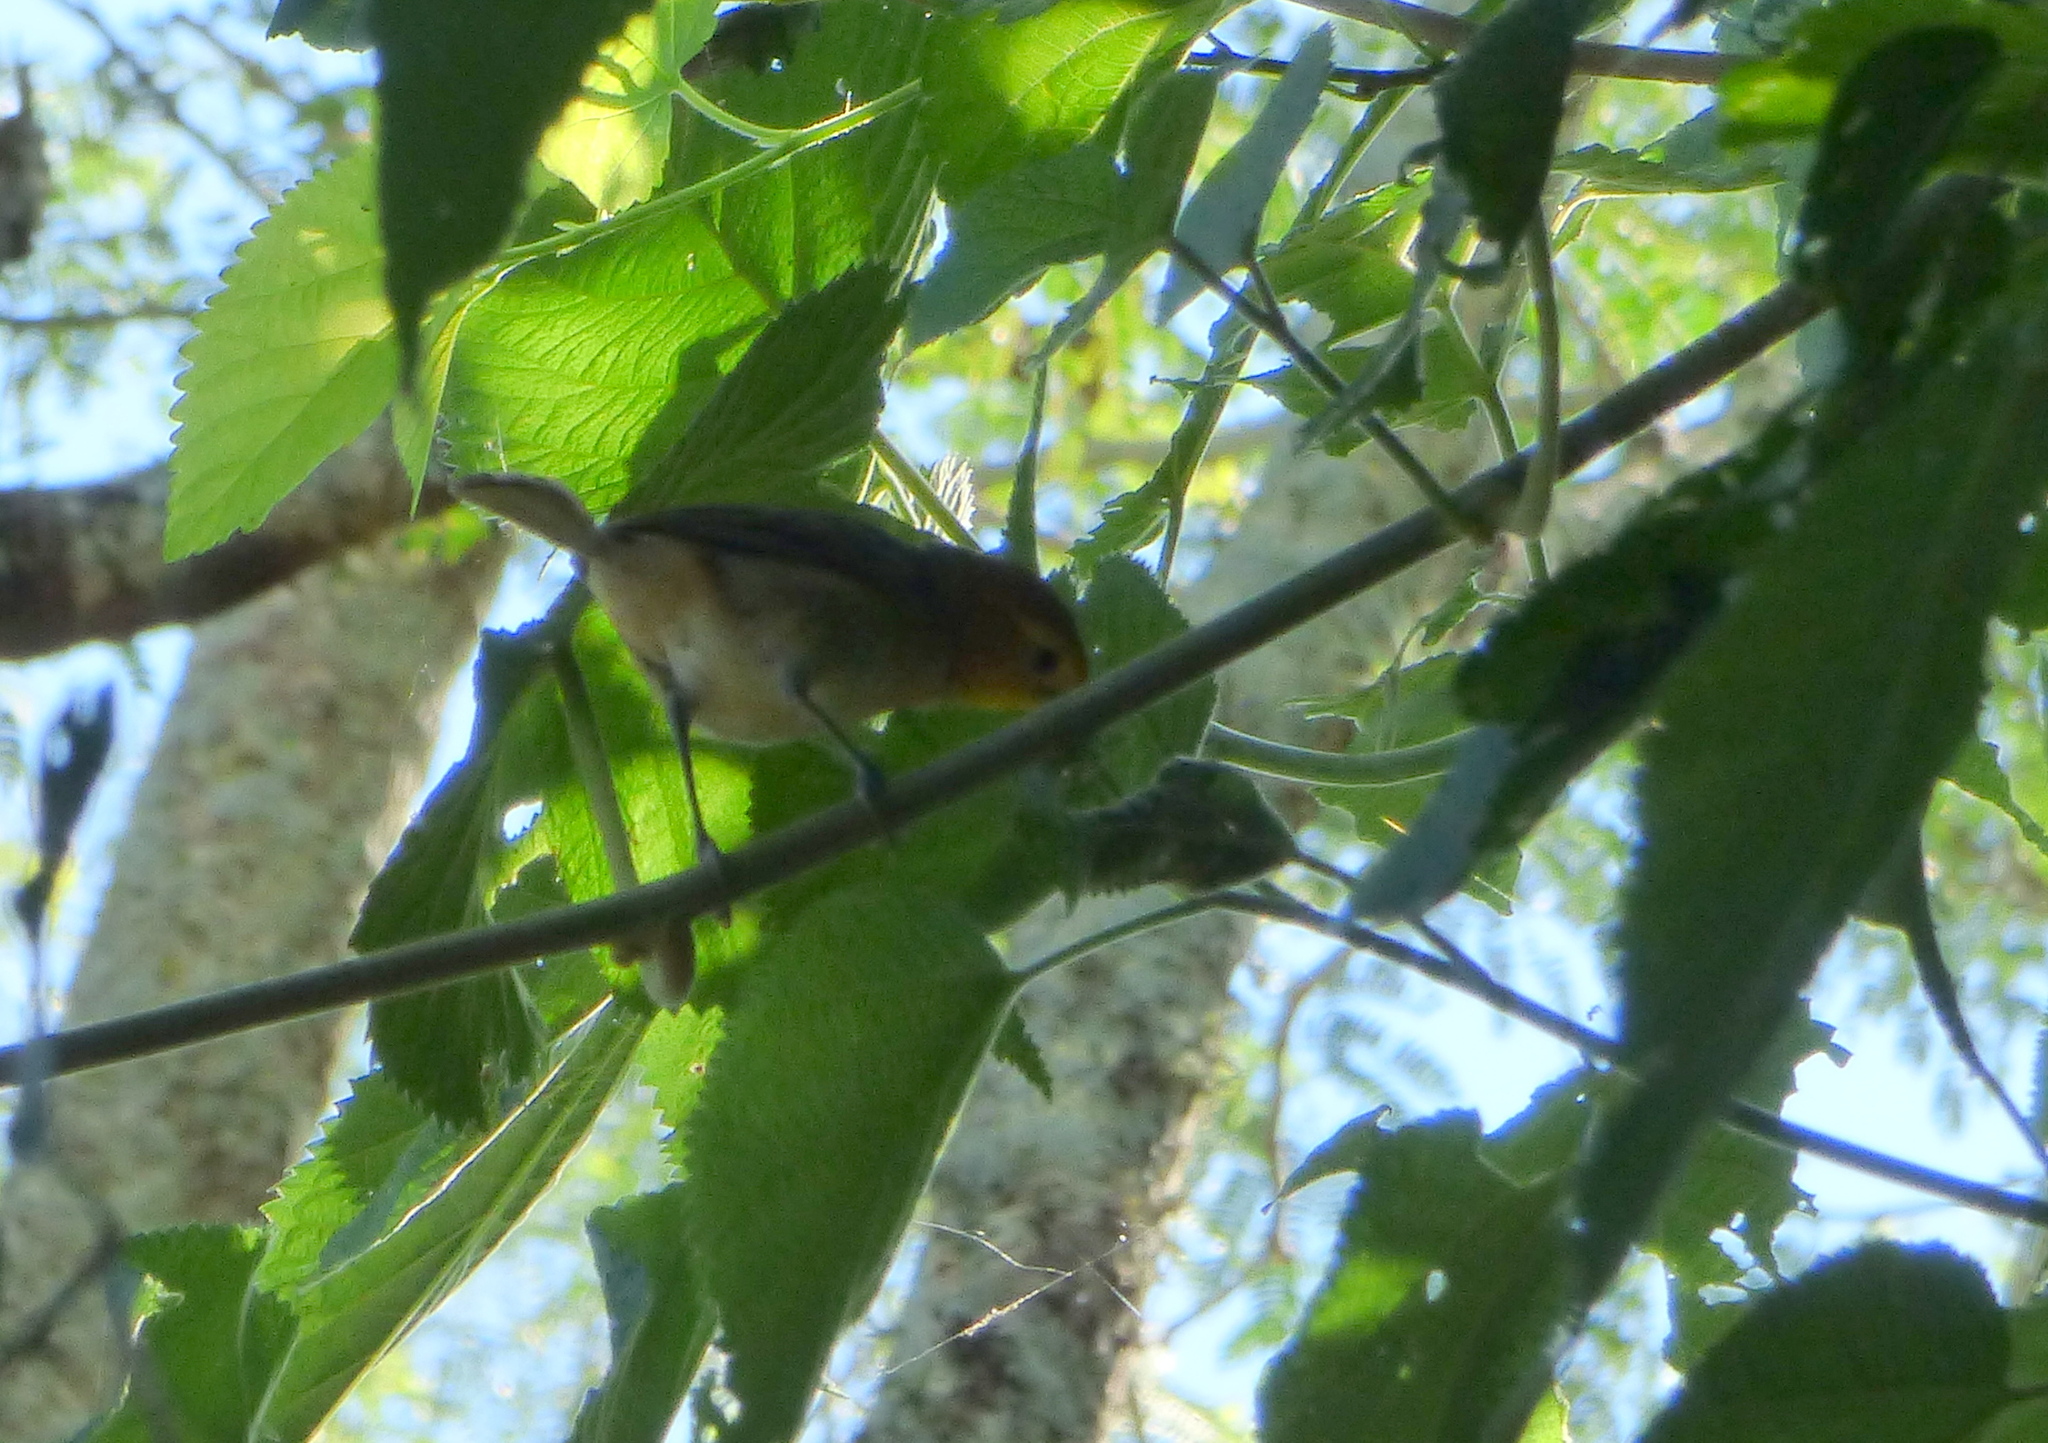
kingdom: Animalia
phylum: Chordata
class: Aves
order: Passeriformes
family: Thraupidae
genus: Thlypopsis
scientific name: Thlypopsis sordida
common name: Orange-headed tanager
